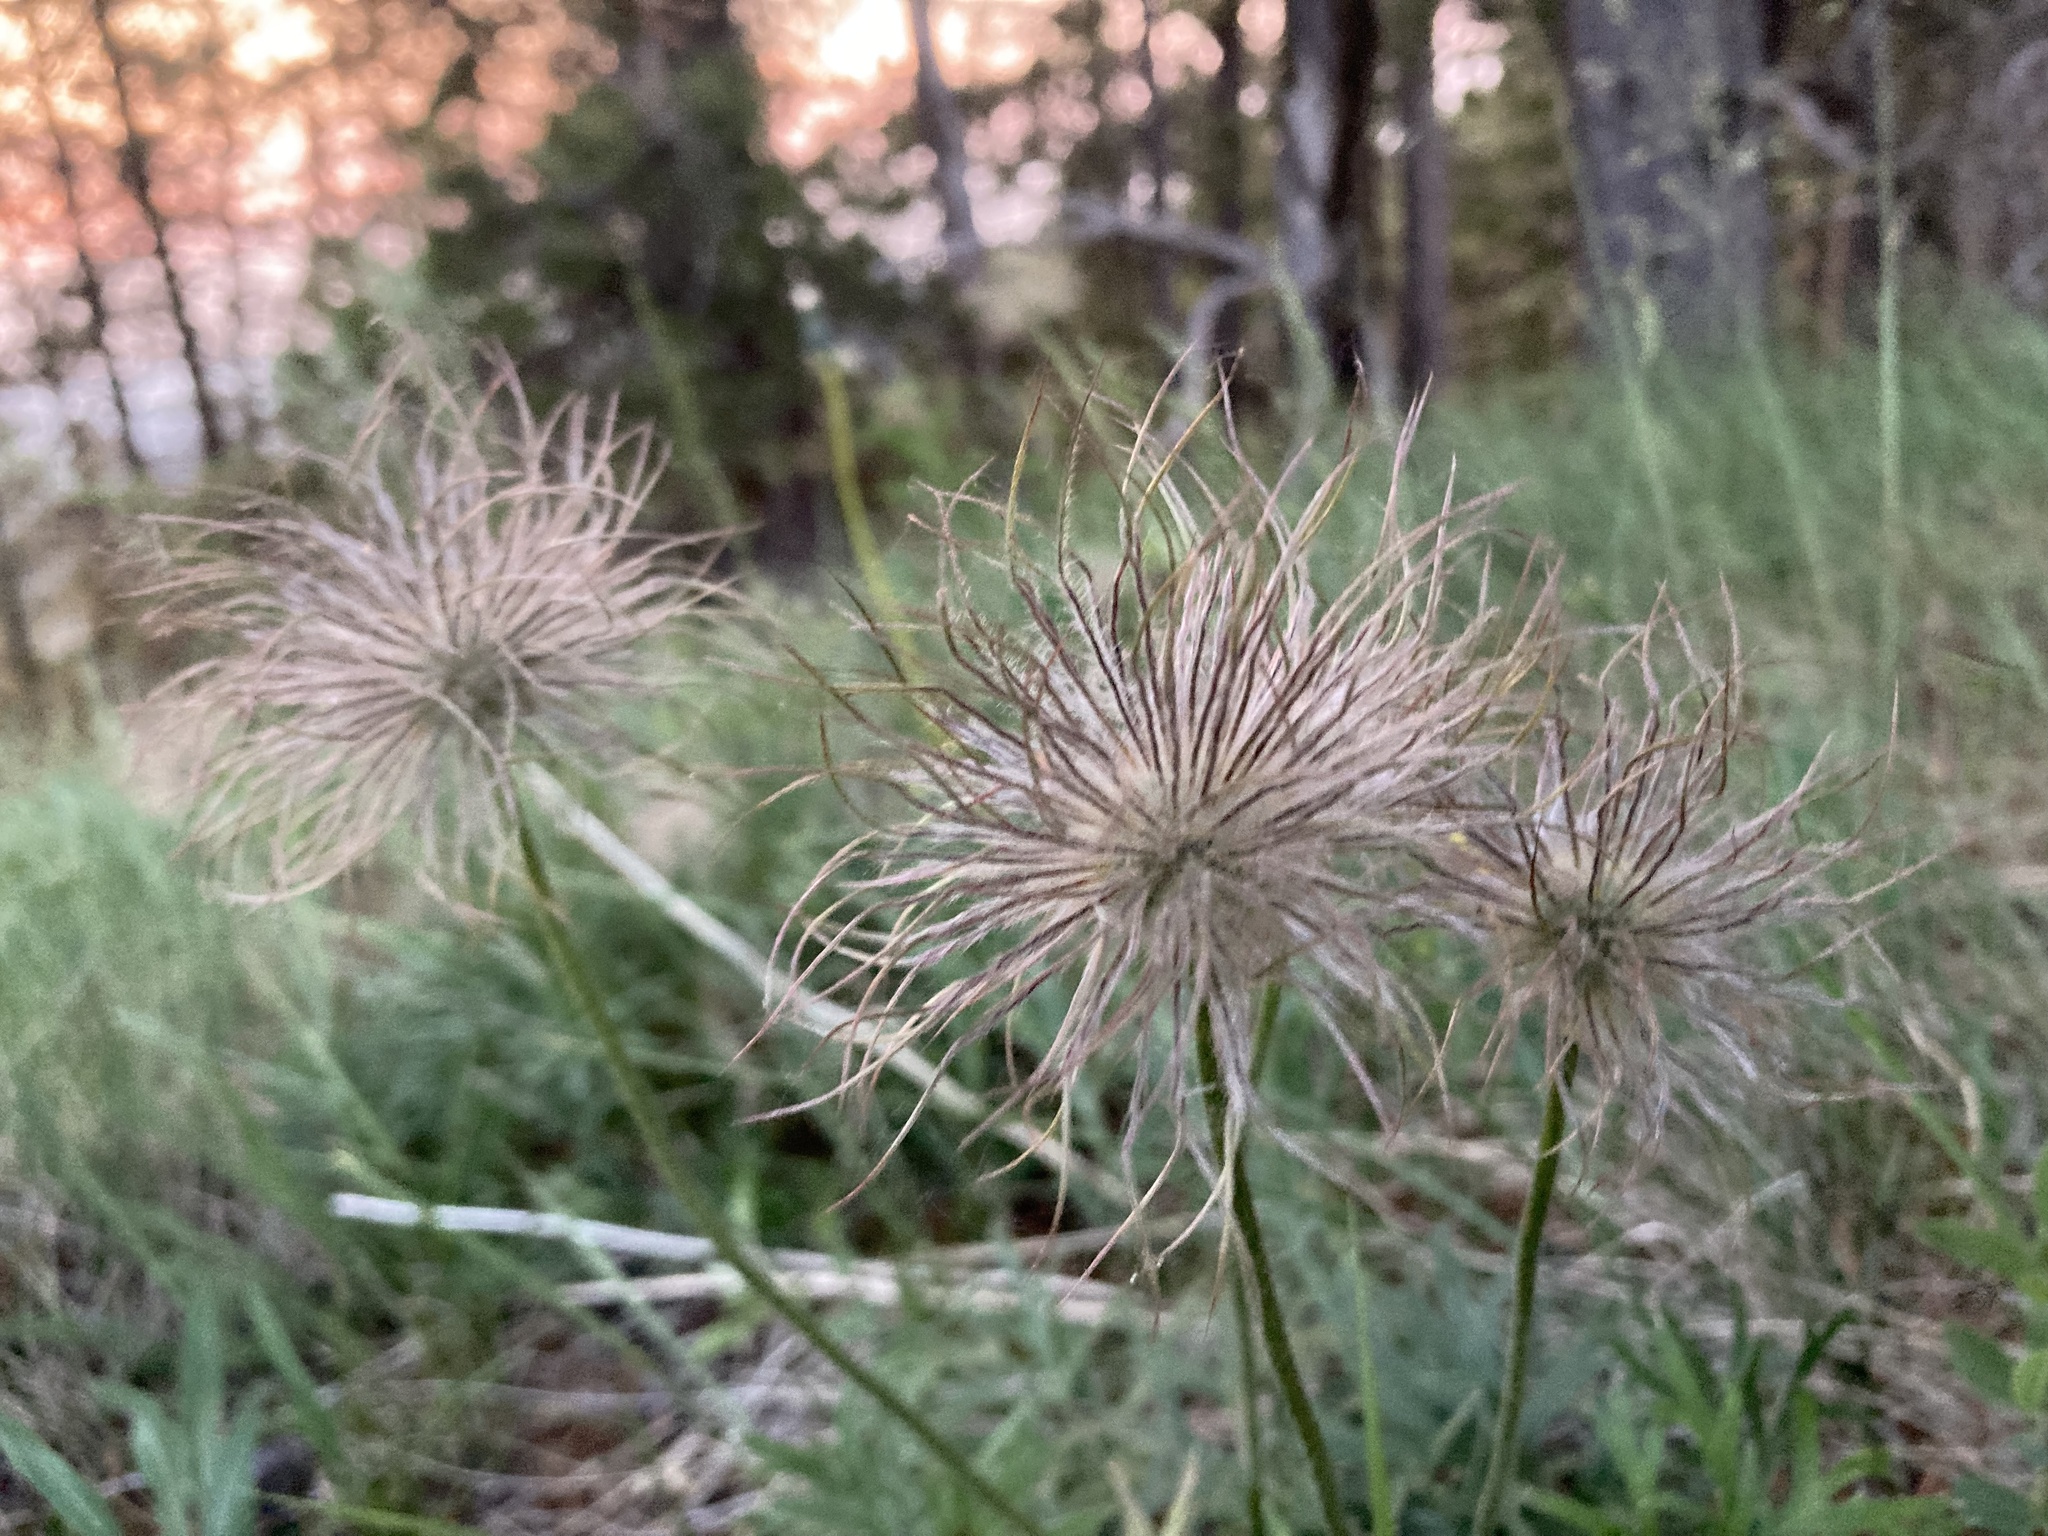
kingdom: Plantae
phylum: Tracheophyta
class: Magnoliopsida
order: Ranunculales
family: Ranunculaceae
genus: Pulsatilla
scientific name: Pulsatilla nuttalliana
